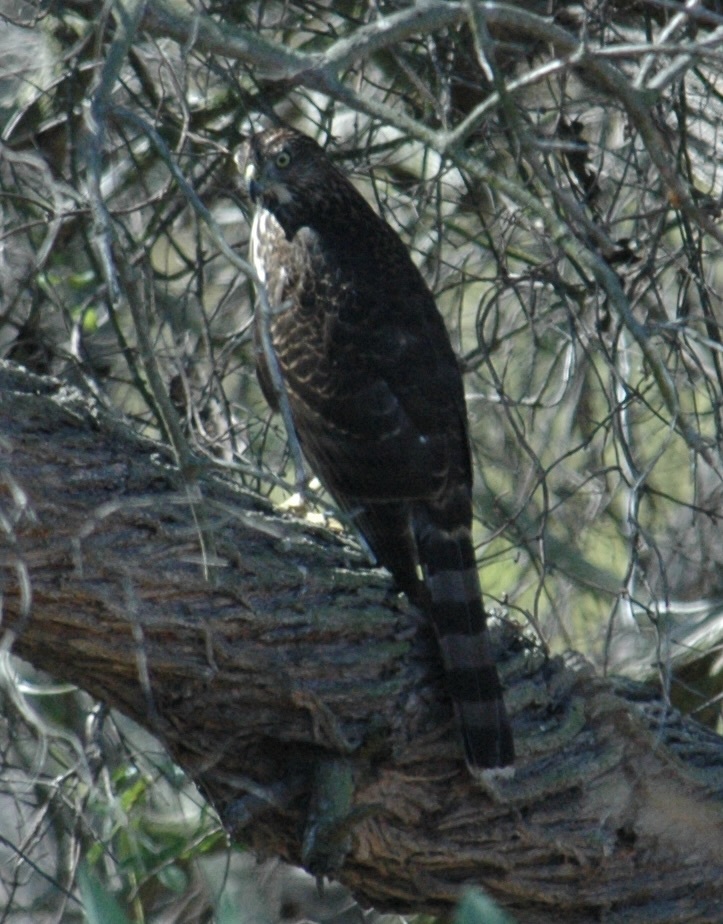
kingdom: Animalia
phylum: Chordata
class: Aves
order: Accipitriformes
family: Accipitridae
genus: Accipiter
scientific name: Accipiter cooperii
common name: Cooper's hawk
